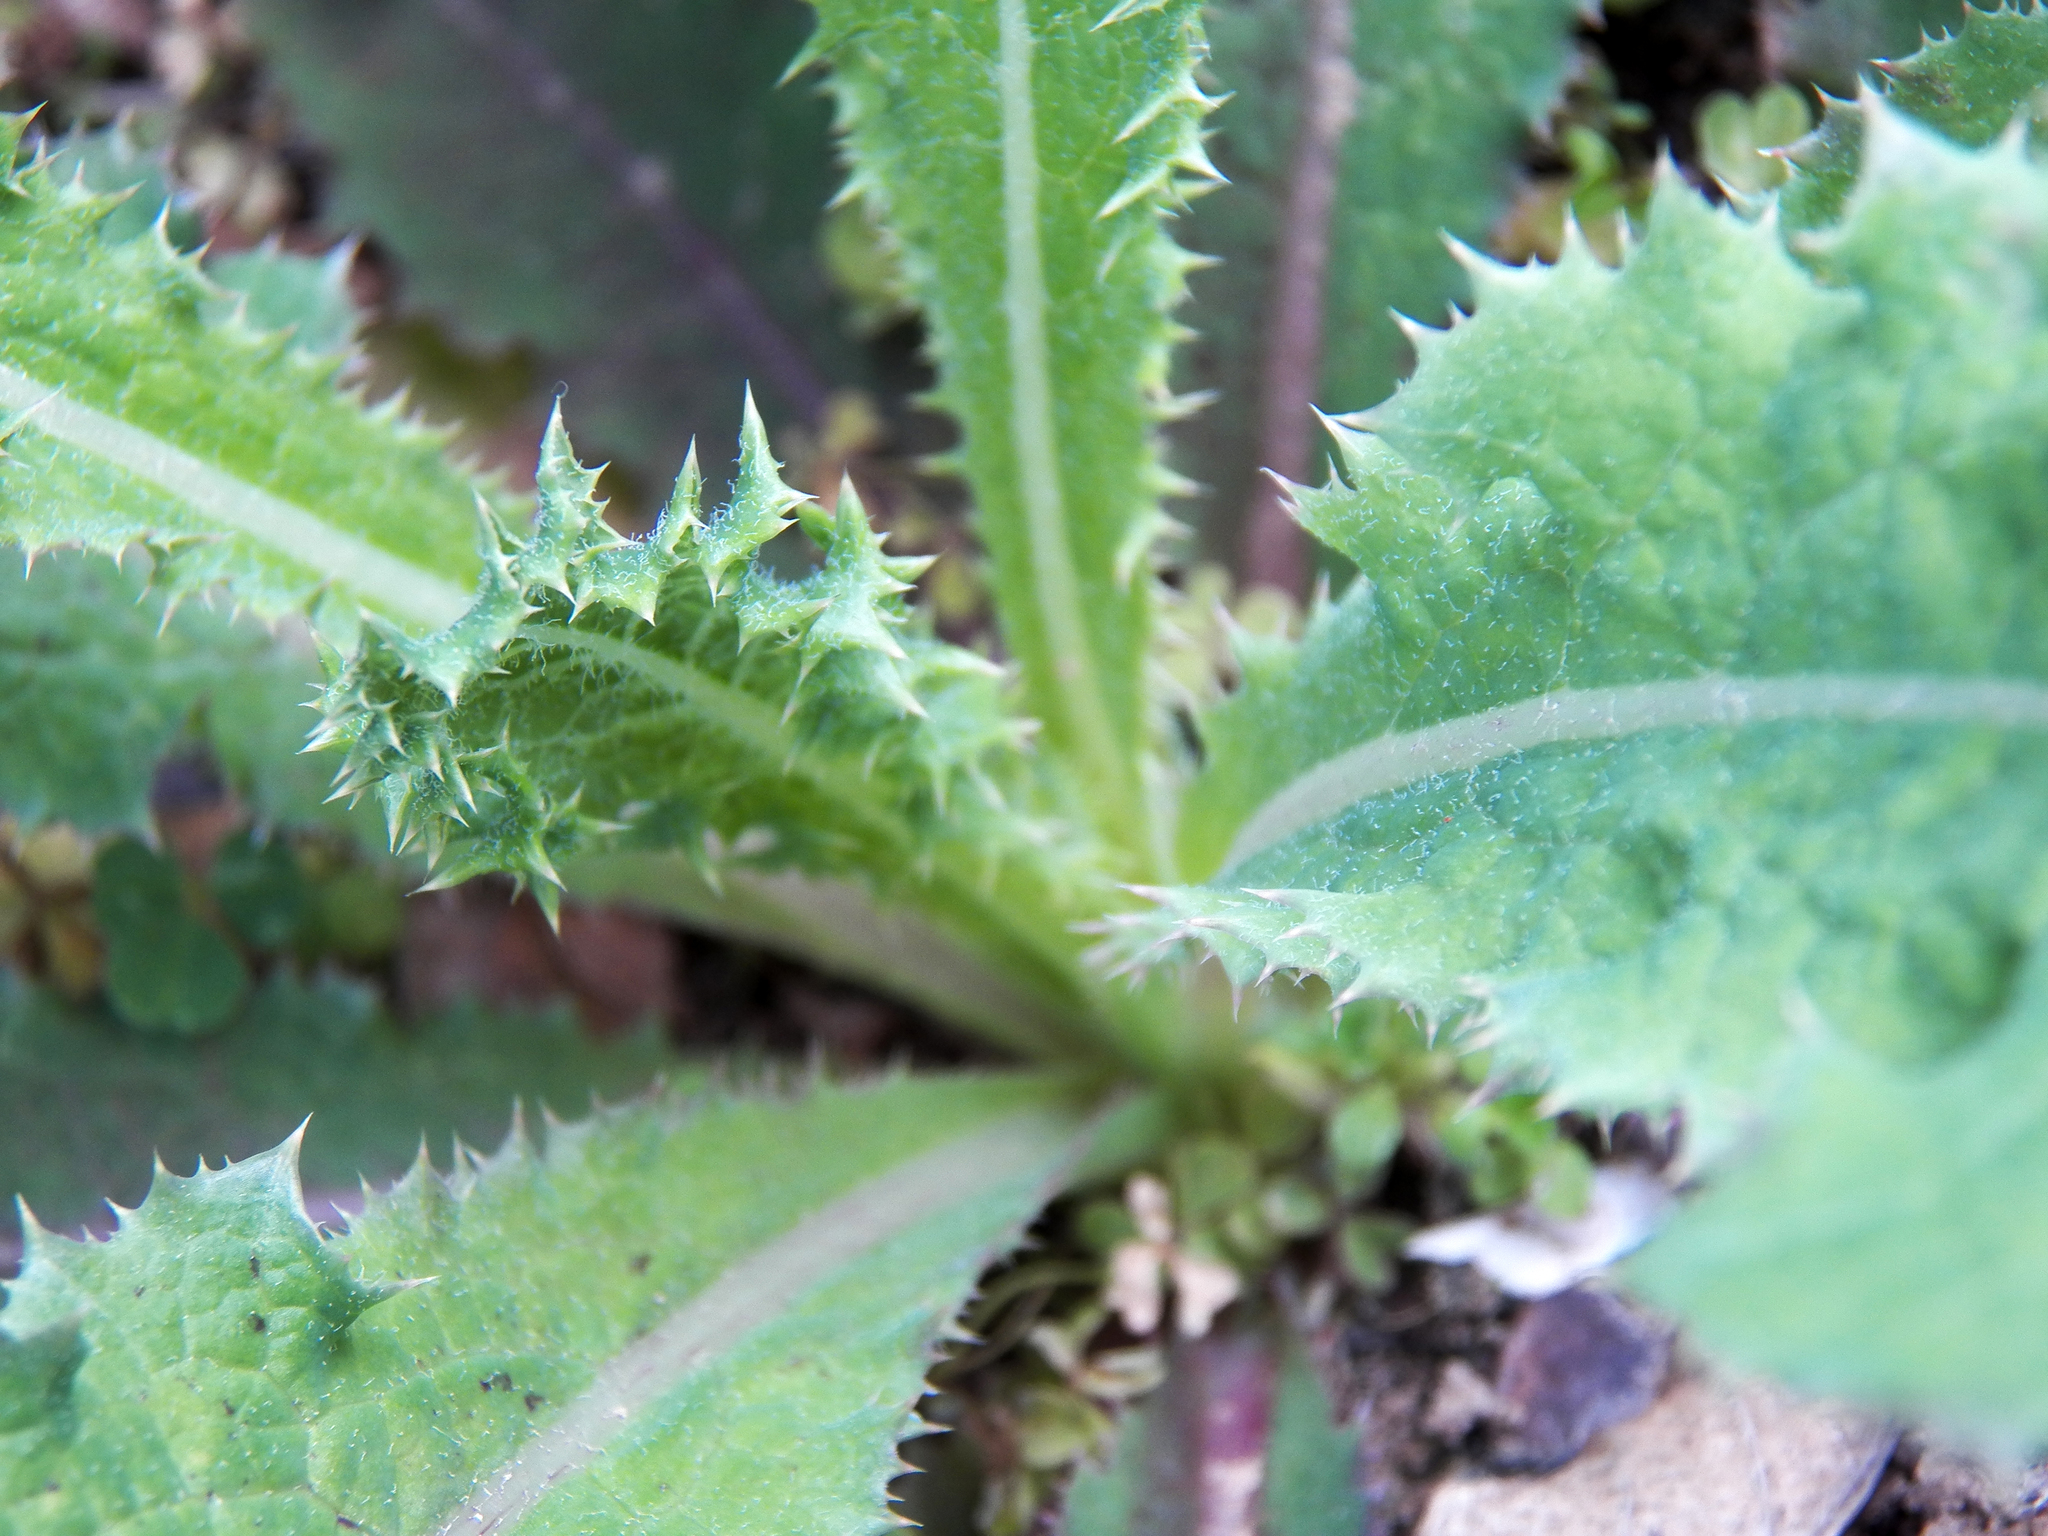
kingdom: Plantae
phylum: Tracheophyta
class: Magnoliopsida
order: Asterales
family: Asteraceae
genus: Sonchus
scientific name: Sonchus asper
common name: Prickly sow-thistle
